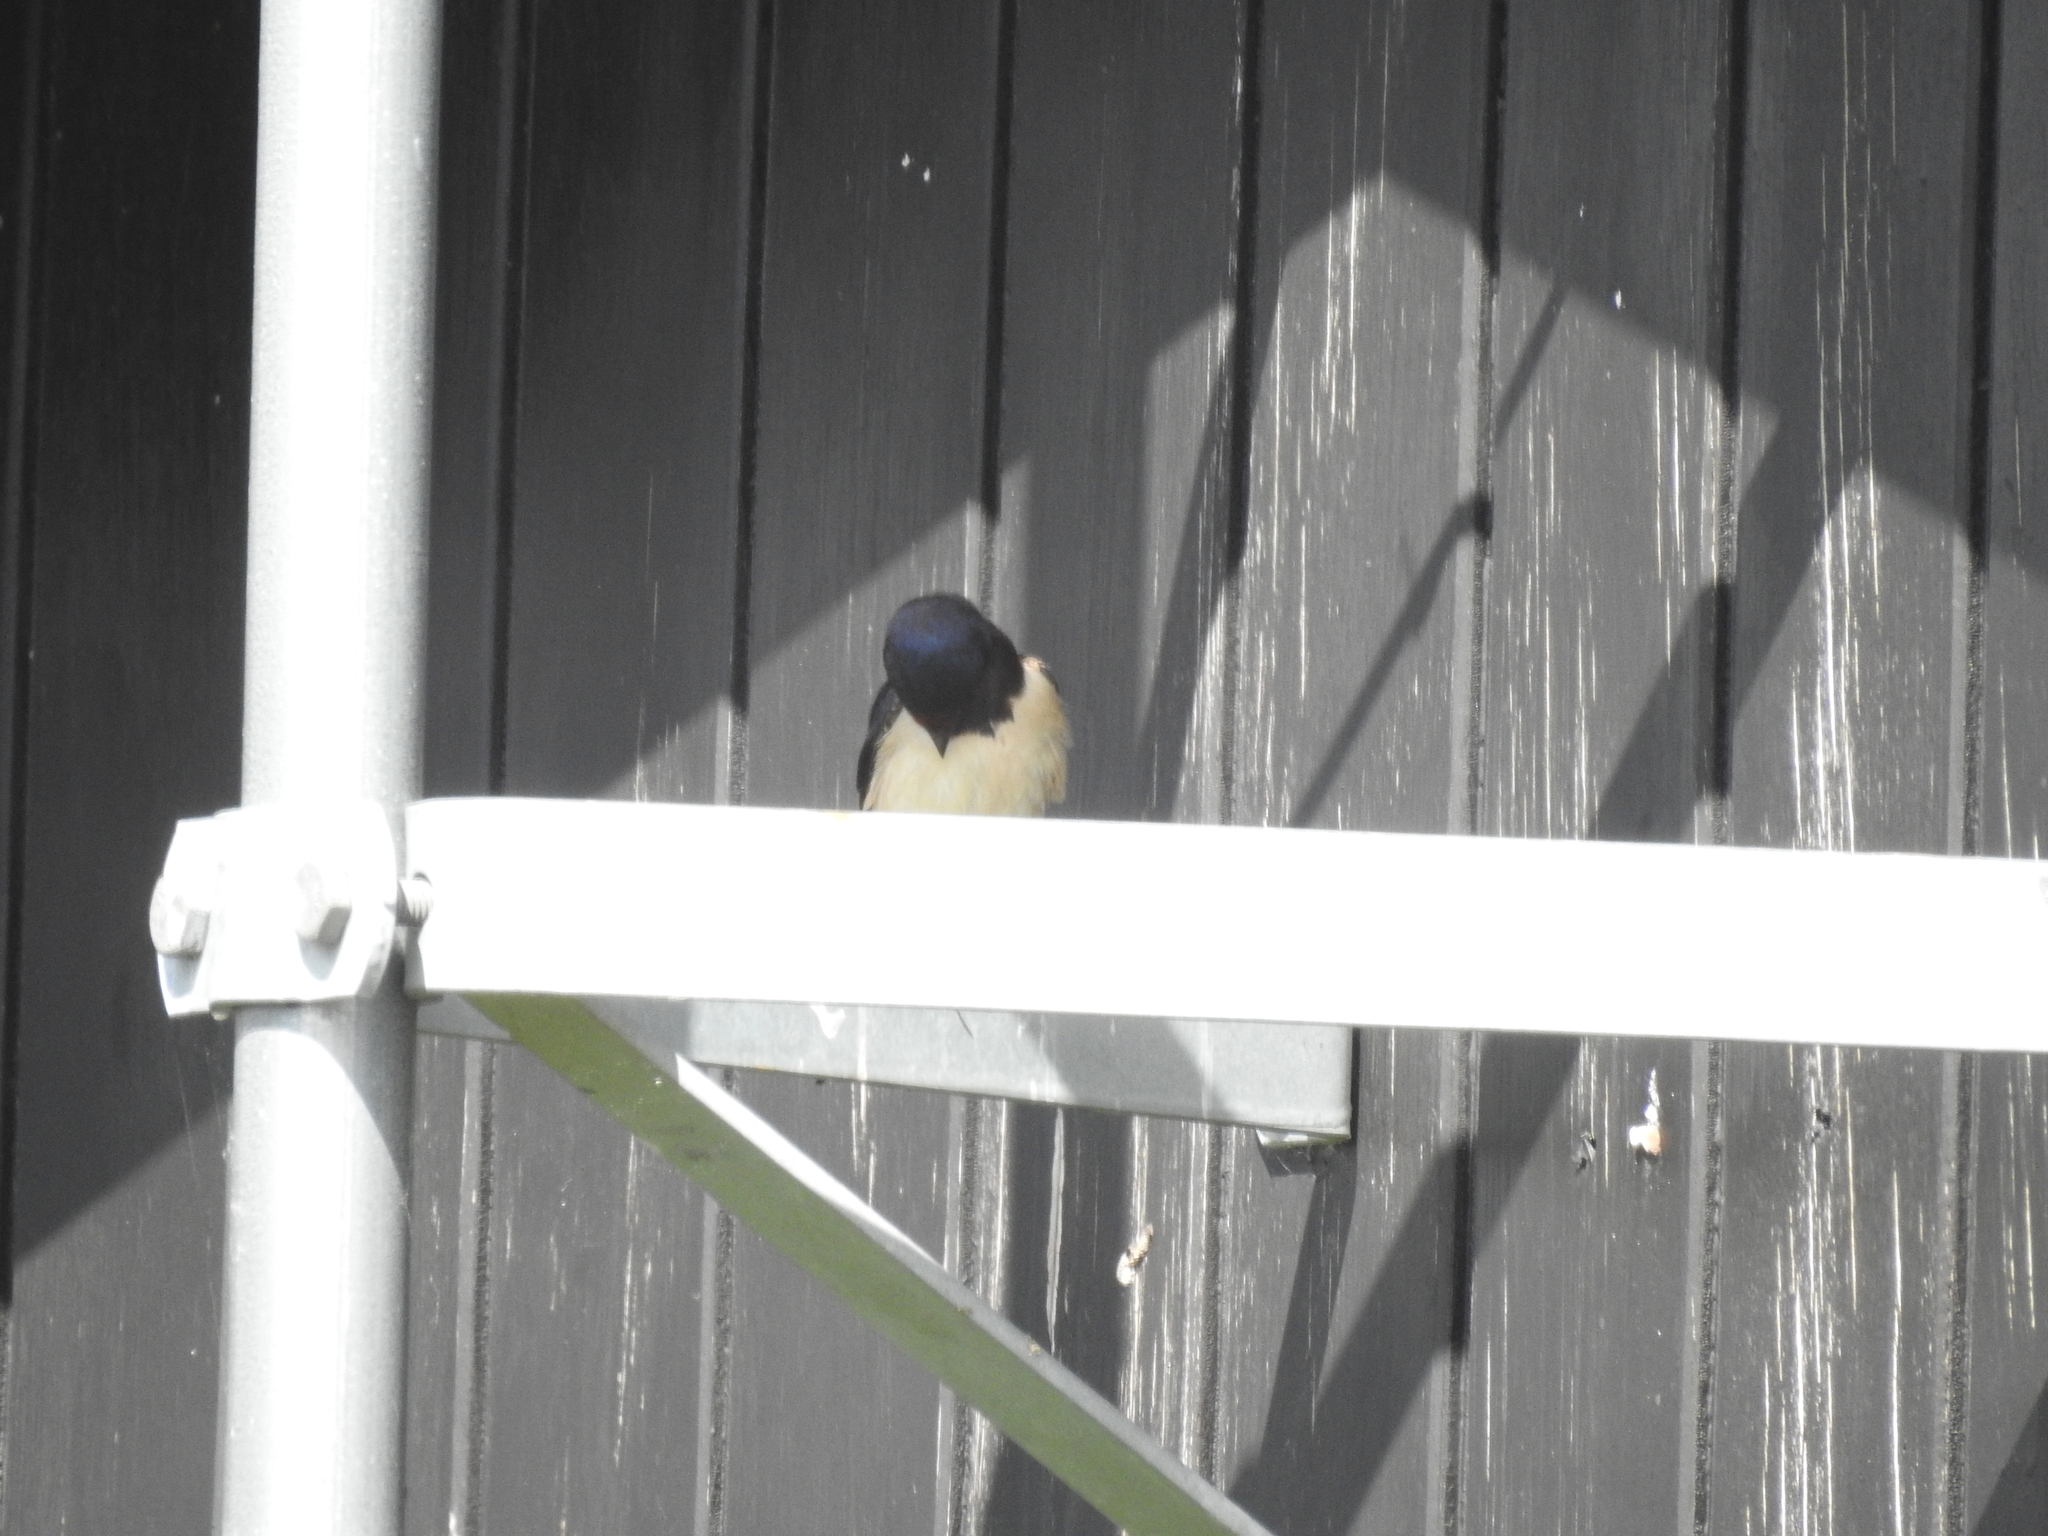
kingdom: Animalia
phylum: Chordata
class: Aves
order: Passeriformes
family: Hirundinidae
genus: Hirundo
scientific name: Hirundo rustica
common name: Barn swallow
